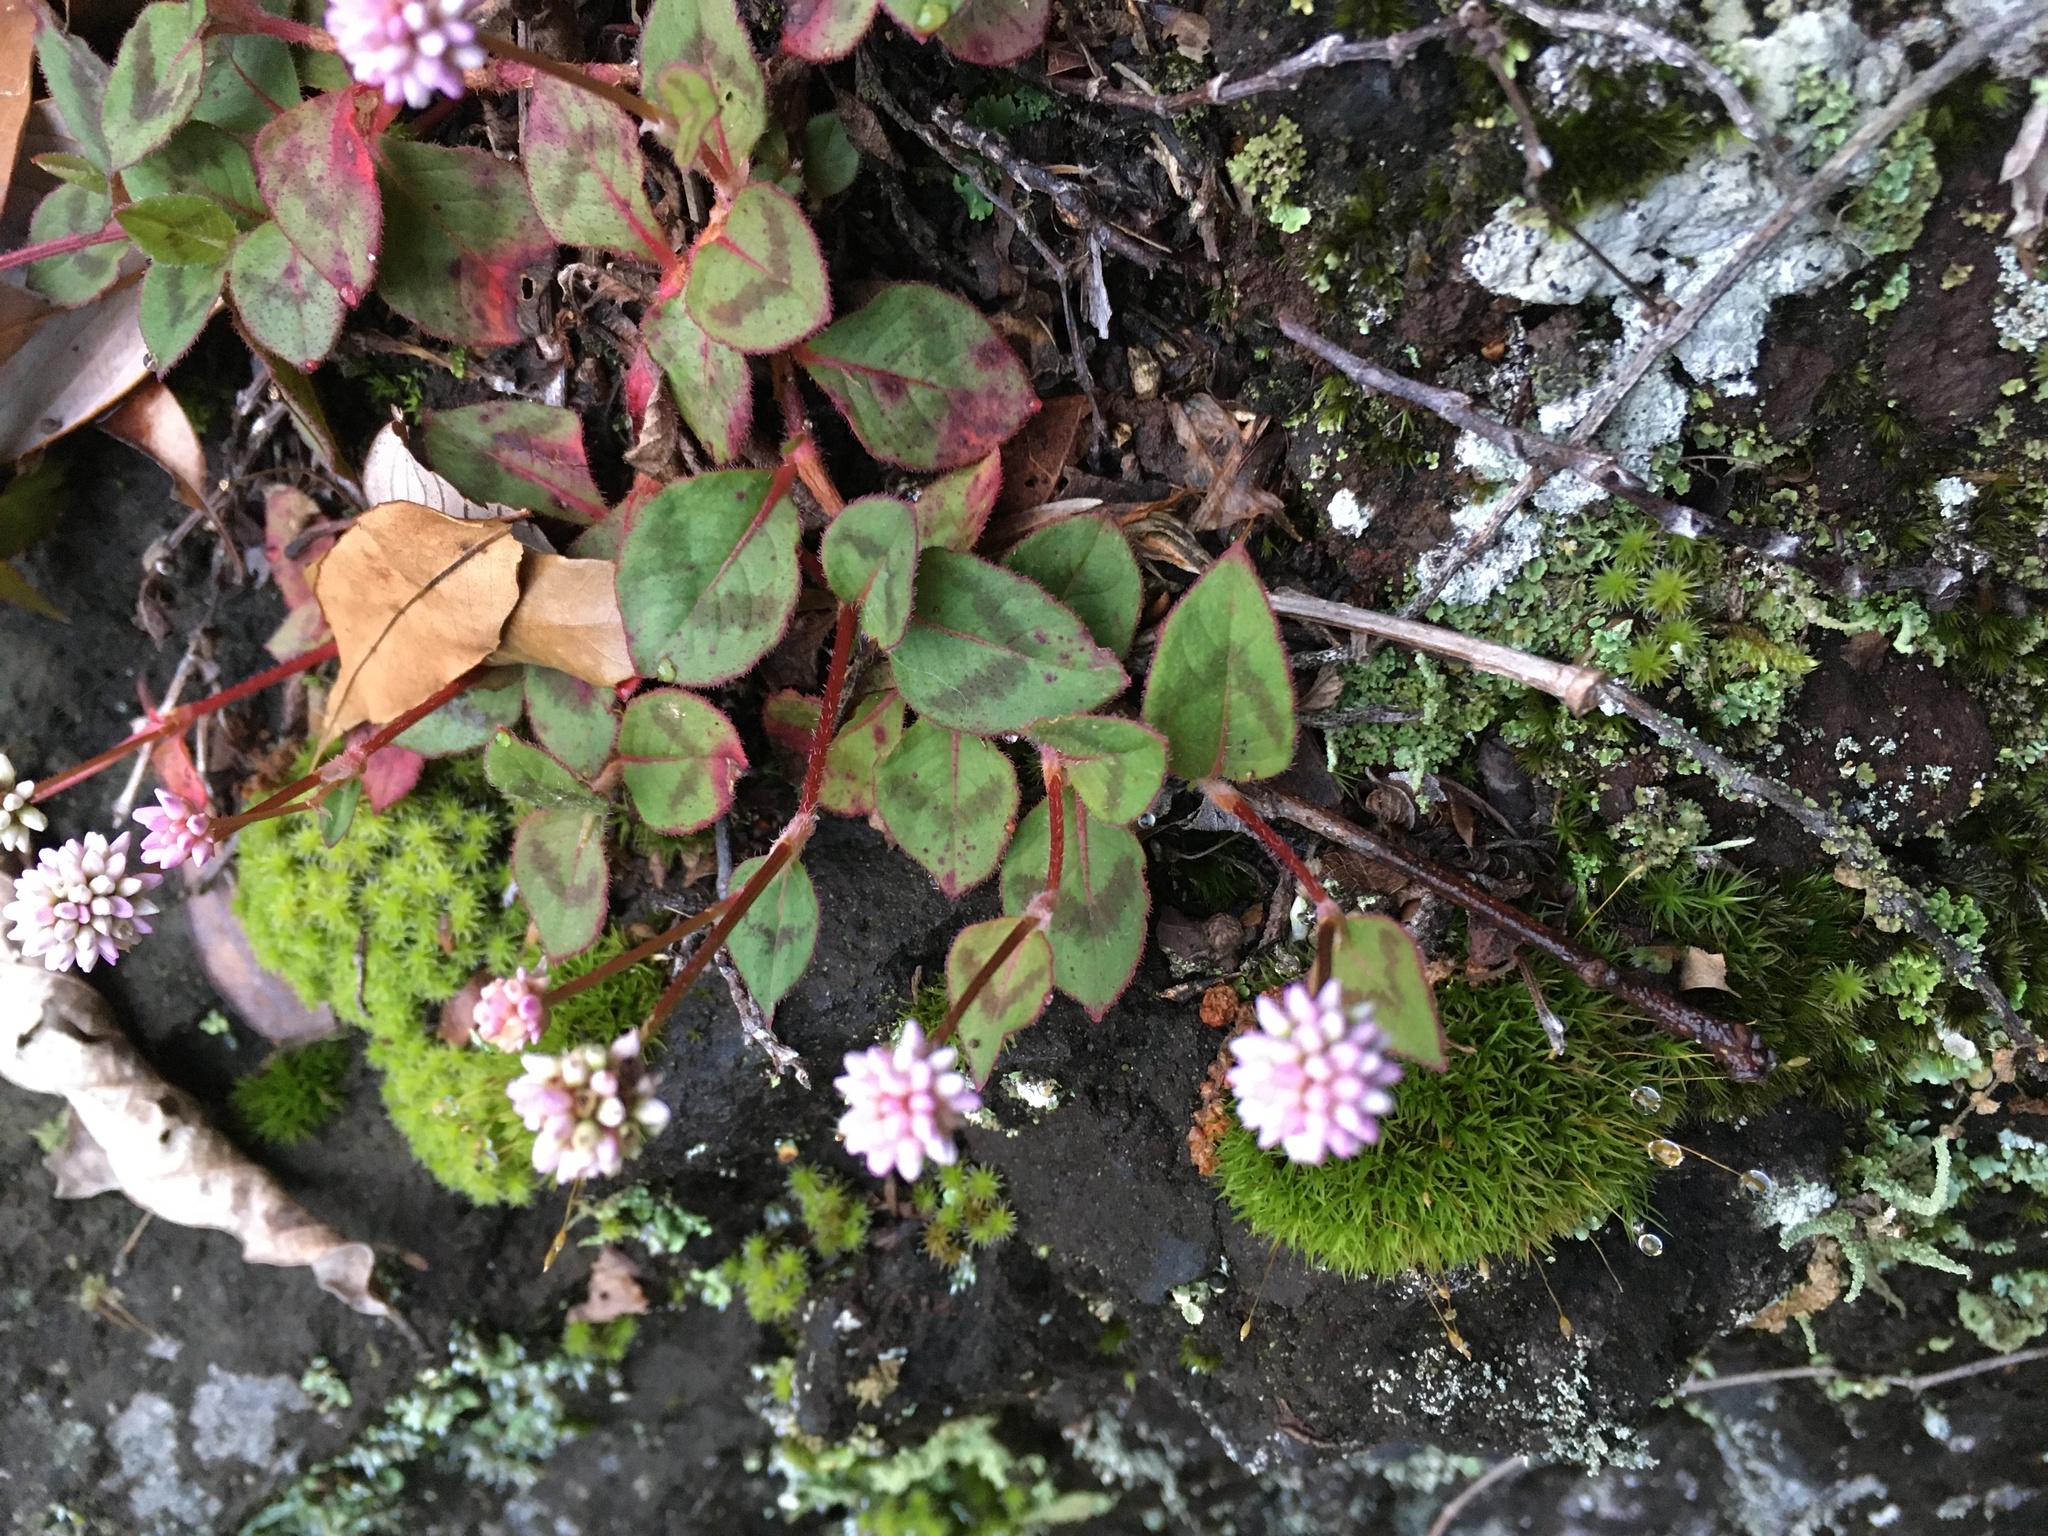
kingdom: Plantae
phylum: Tracheophyta
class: Magnoliopsida
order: Caryophyllales
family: Polygonaceae
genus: Persicaria
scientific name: Persicaria capitata
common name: Pinkhead smartweed
